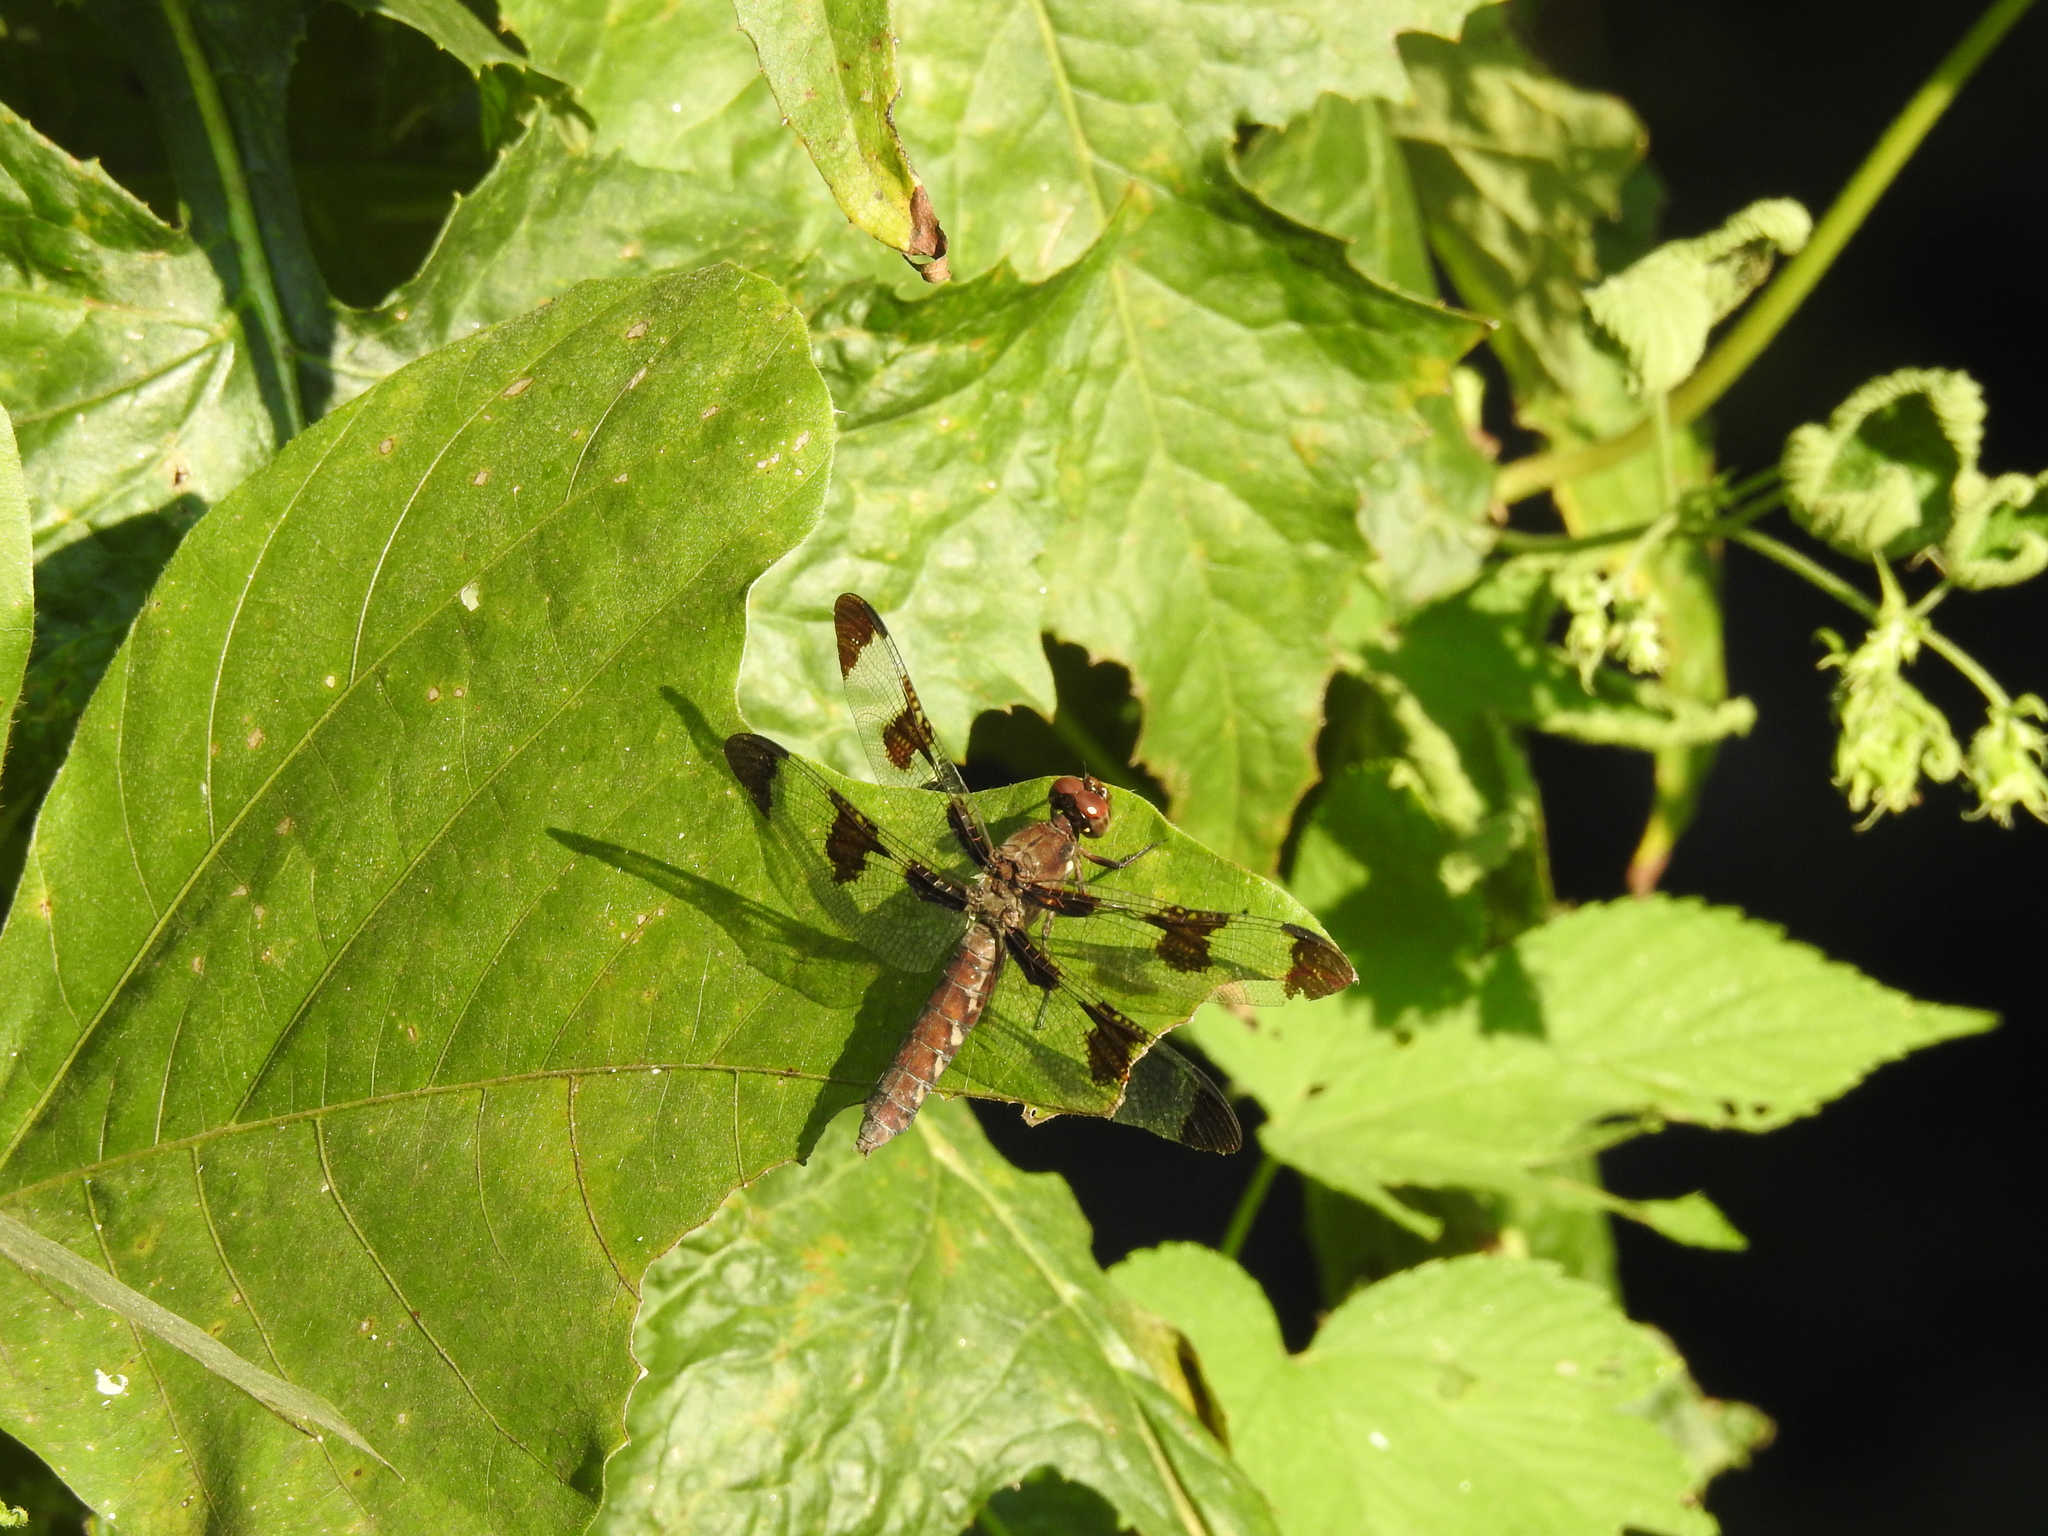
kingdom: Animalia
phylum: Arthropoda
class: Insecta
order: Odonata
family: Libellulidae
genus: Plathemis
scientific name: Plathemis lydia
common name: Common whitetail
